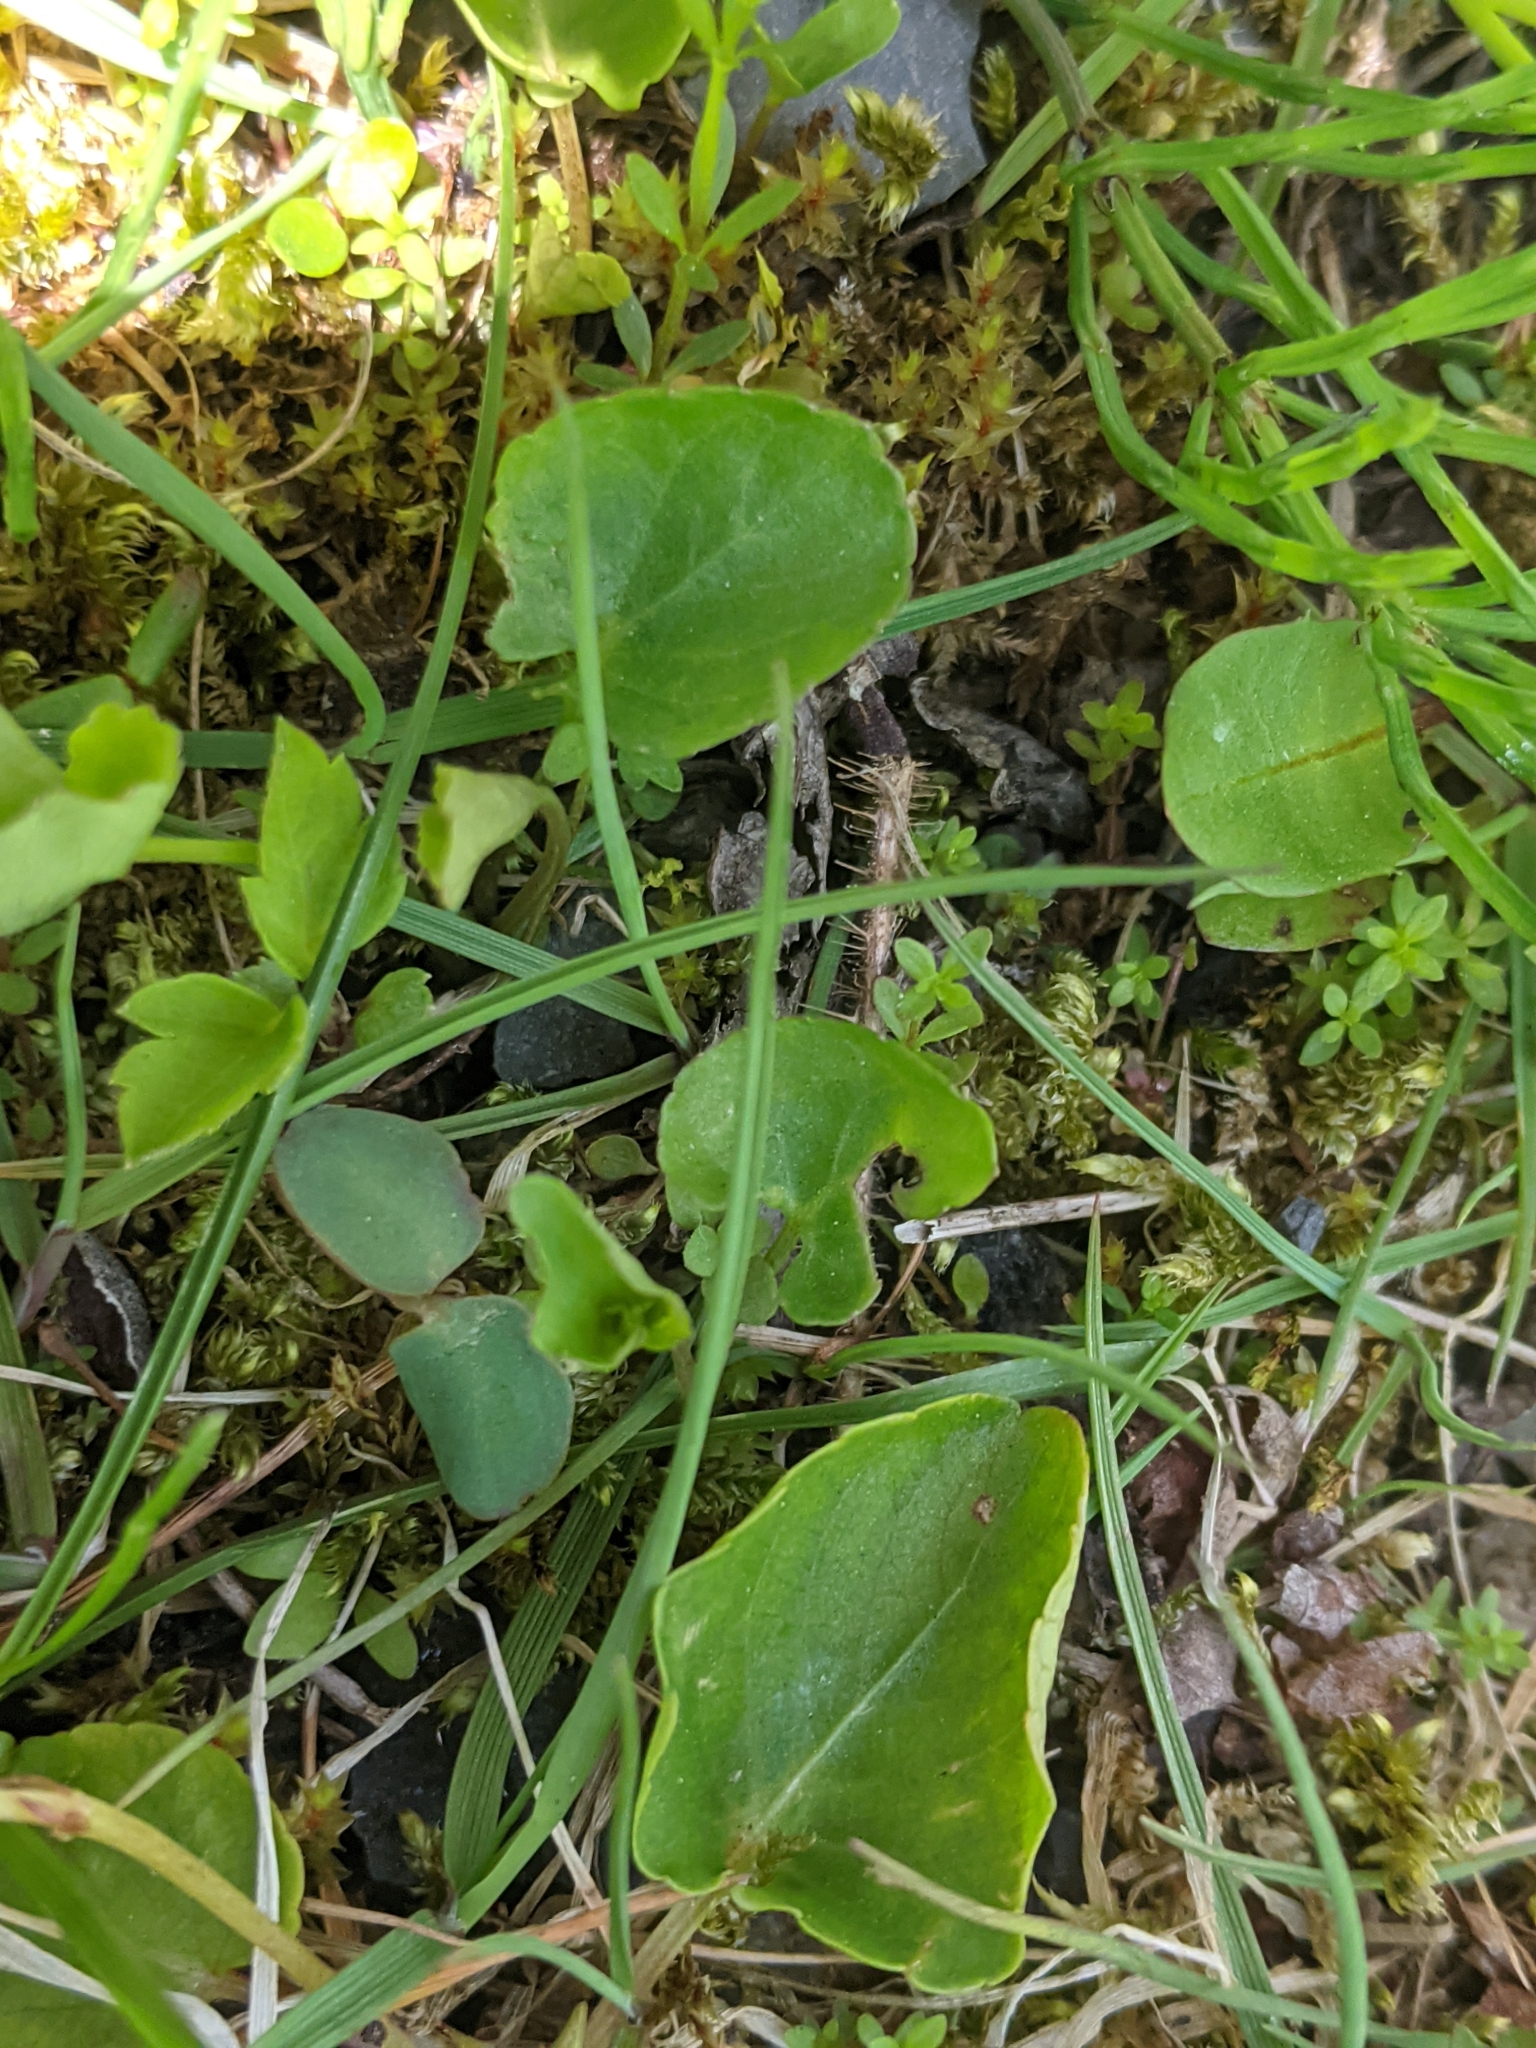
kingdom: Plantae
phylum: Tracheophyta
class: Magnoliopsida
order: Malpighiales
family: Violaceae
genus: Viola
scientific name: Viola minuscula
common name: Northern white violet
